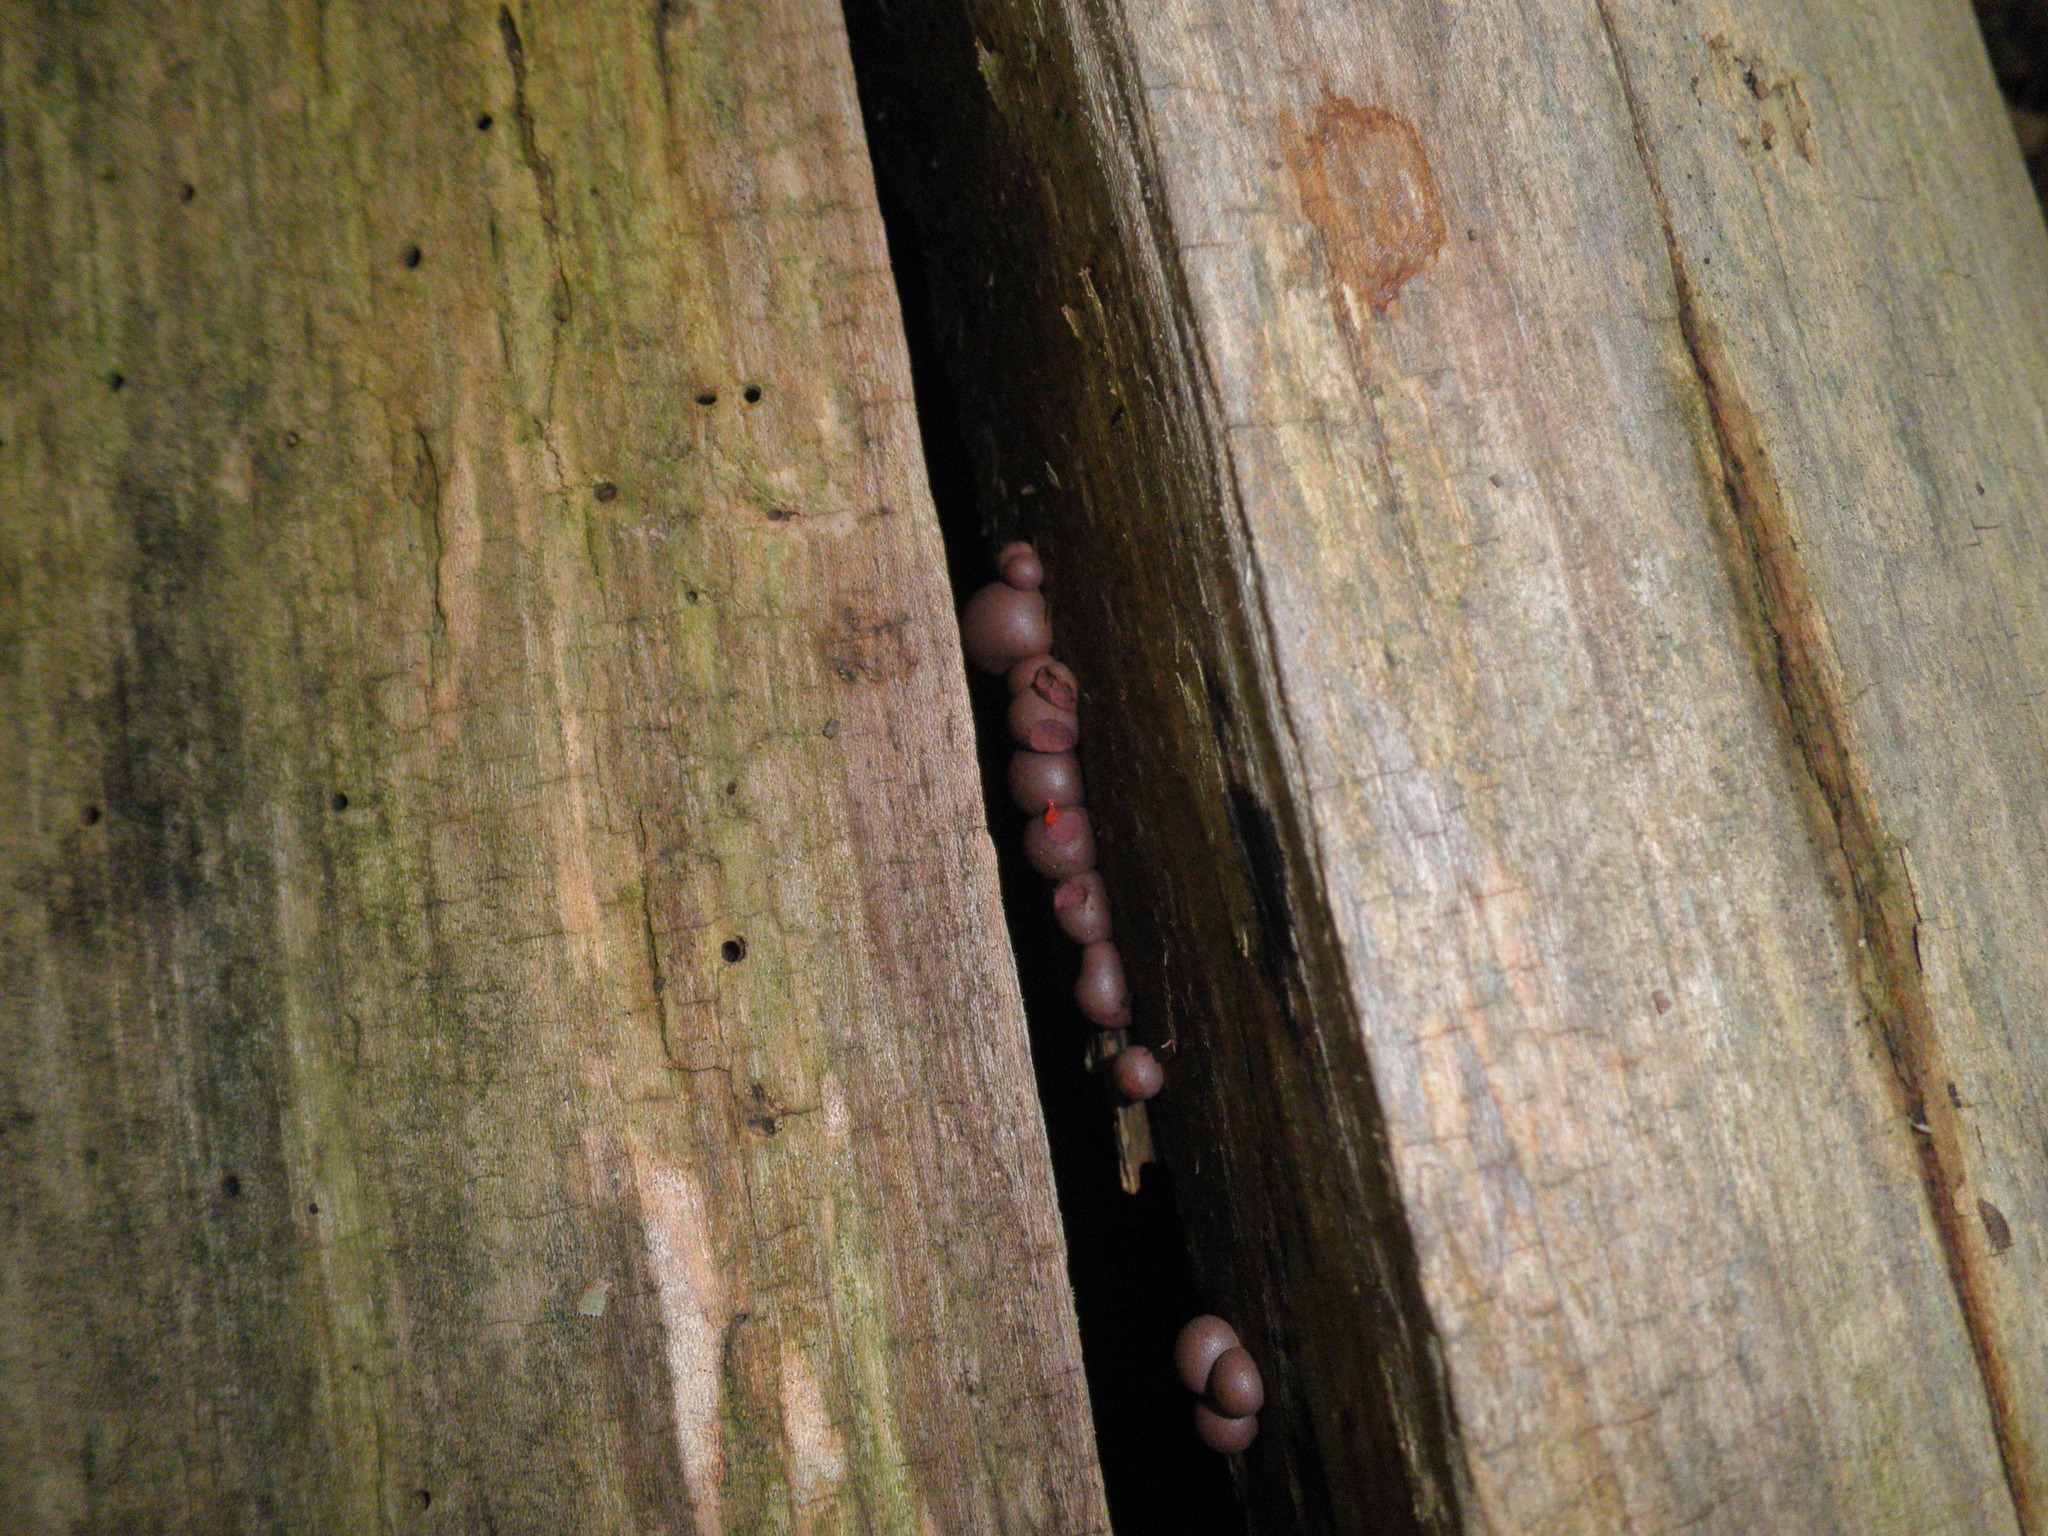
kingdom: Protozoa
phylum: Mycetozoa
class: Myxomycetes
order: Cribrariales
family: Tubiferaceae
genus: Lycogala
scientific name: Lycogala epidendrum
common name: Wolf's milk
